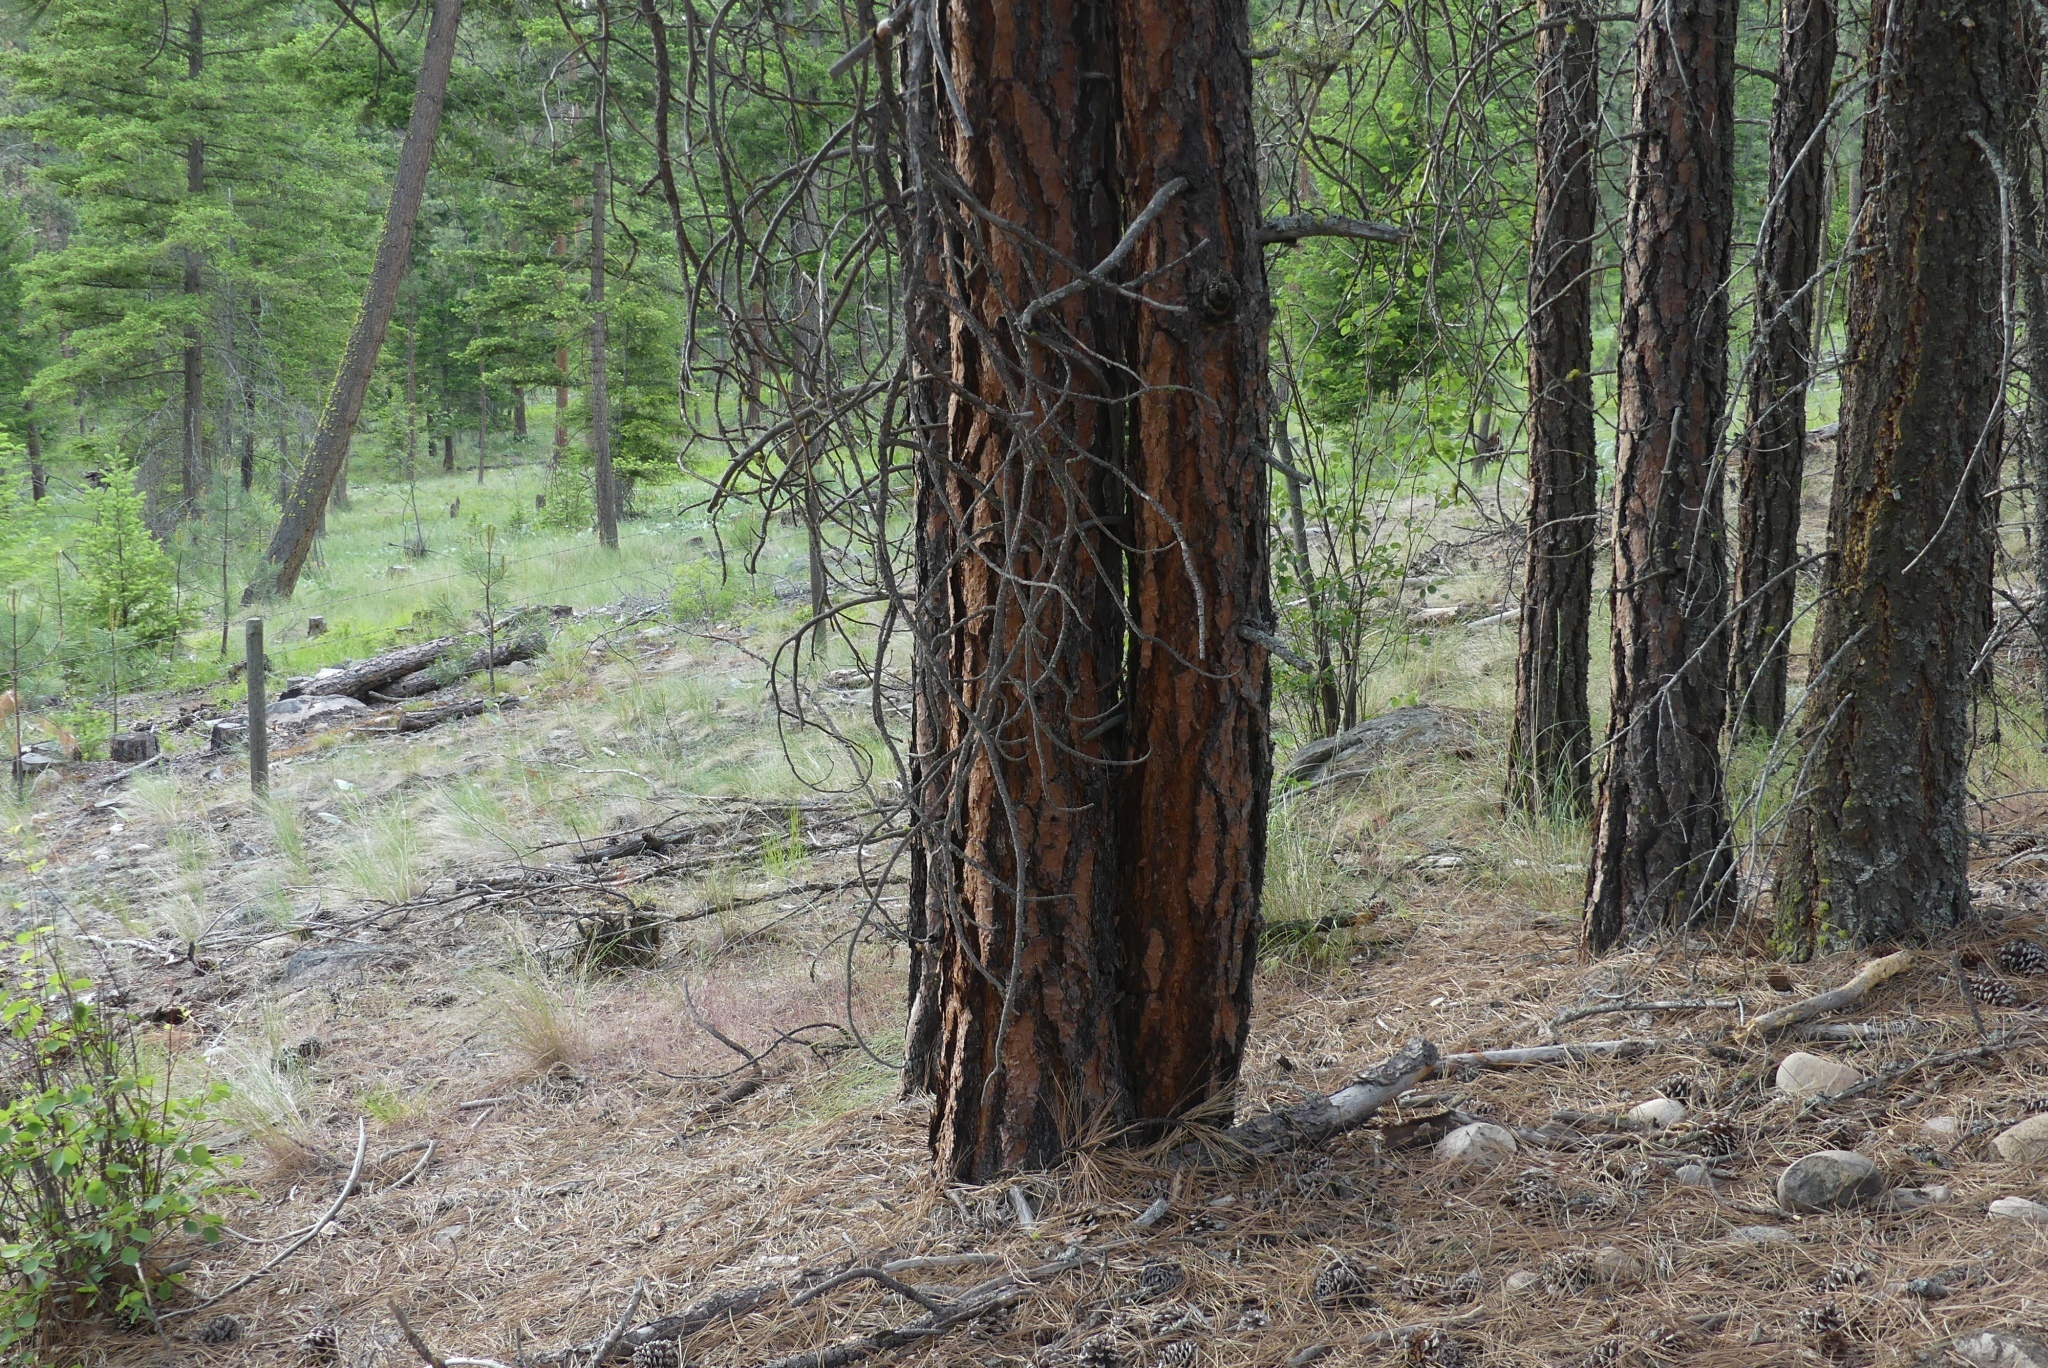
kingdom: Plantae
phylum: Tracheophyta
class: Pinopsida
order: Pinales
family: Pinaceae
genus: Pinus
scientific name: Pinus ponderosa
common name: Western yellow-pine
